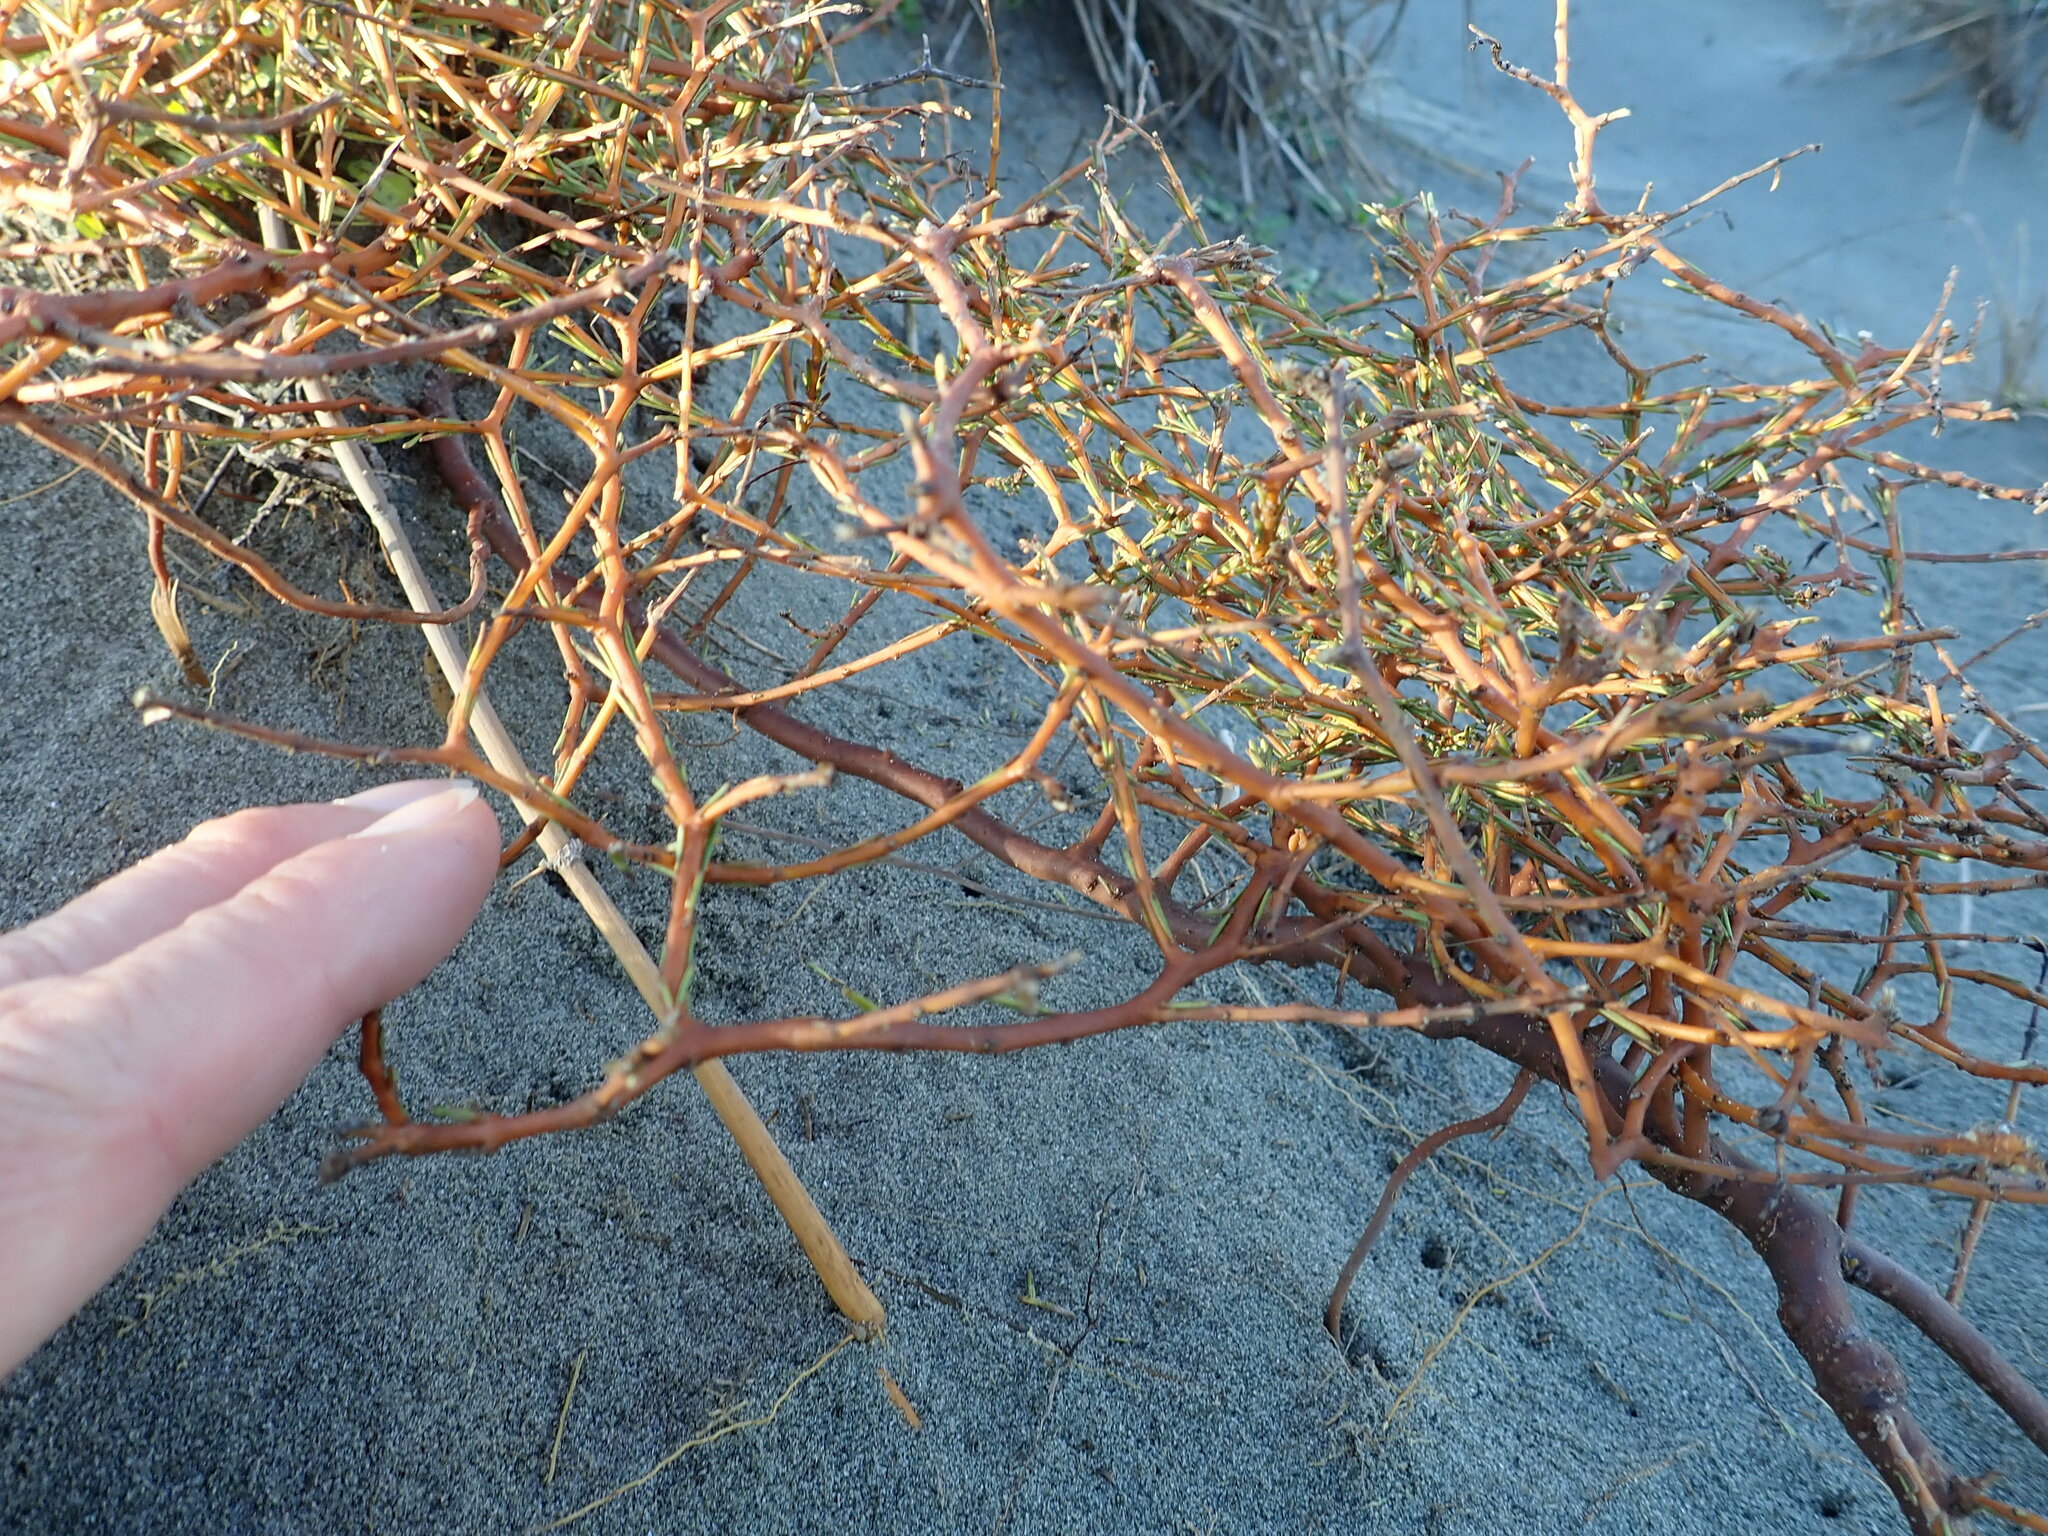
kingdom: Plantae
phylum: Tracheophyta
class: Magnoliopsida
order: Gentianales
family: Rubiaceae
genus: Coprosma
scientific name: Coprosma acerosa
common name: Sand coprosma
